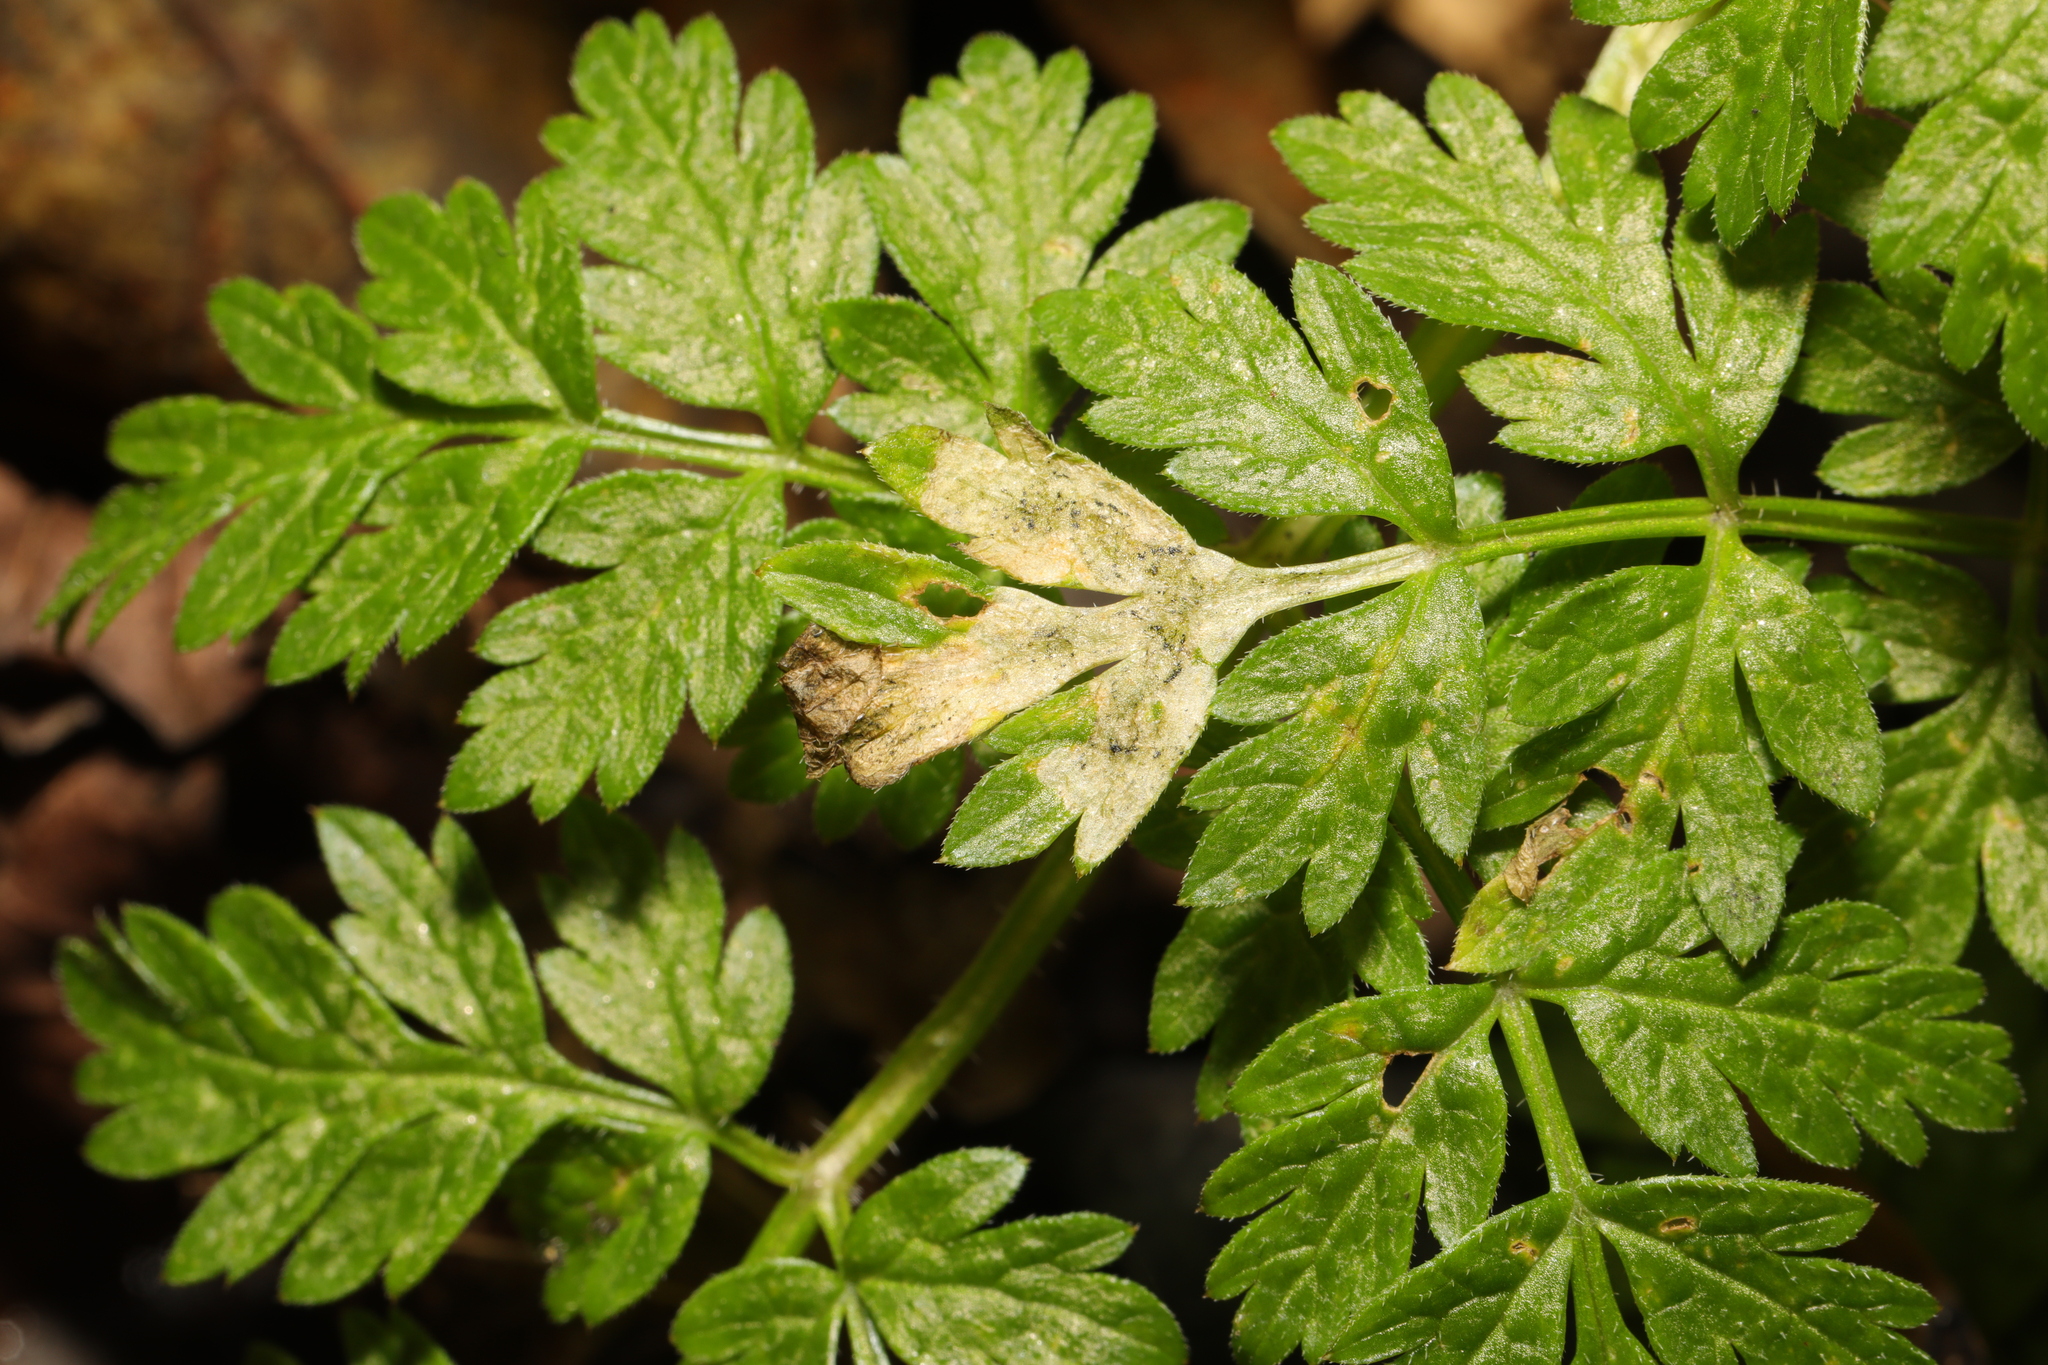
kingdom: Animalia
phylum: Arthropoda
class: Insecta
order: Diptera
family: Agromyzidae
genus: Phytomyza
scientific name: Phytomyza chaerophylli
